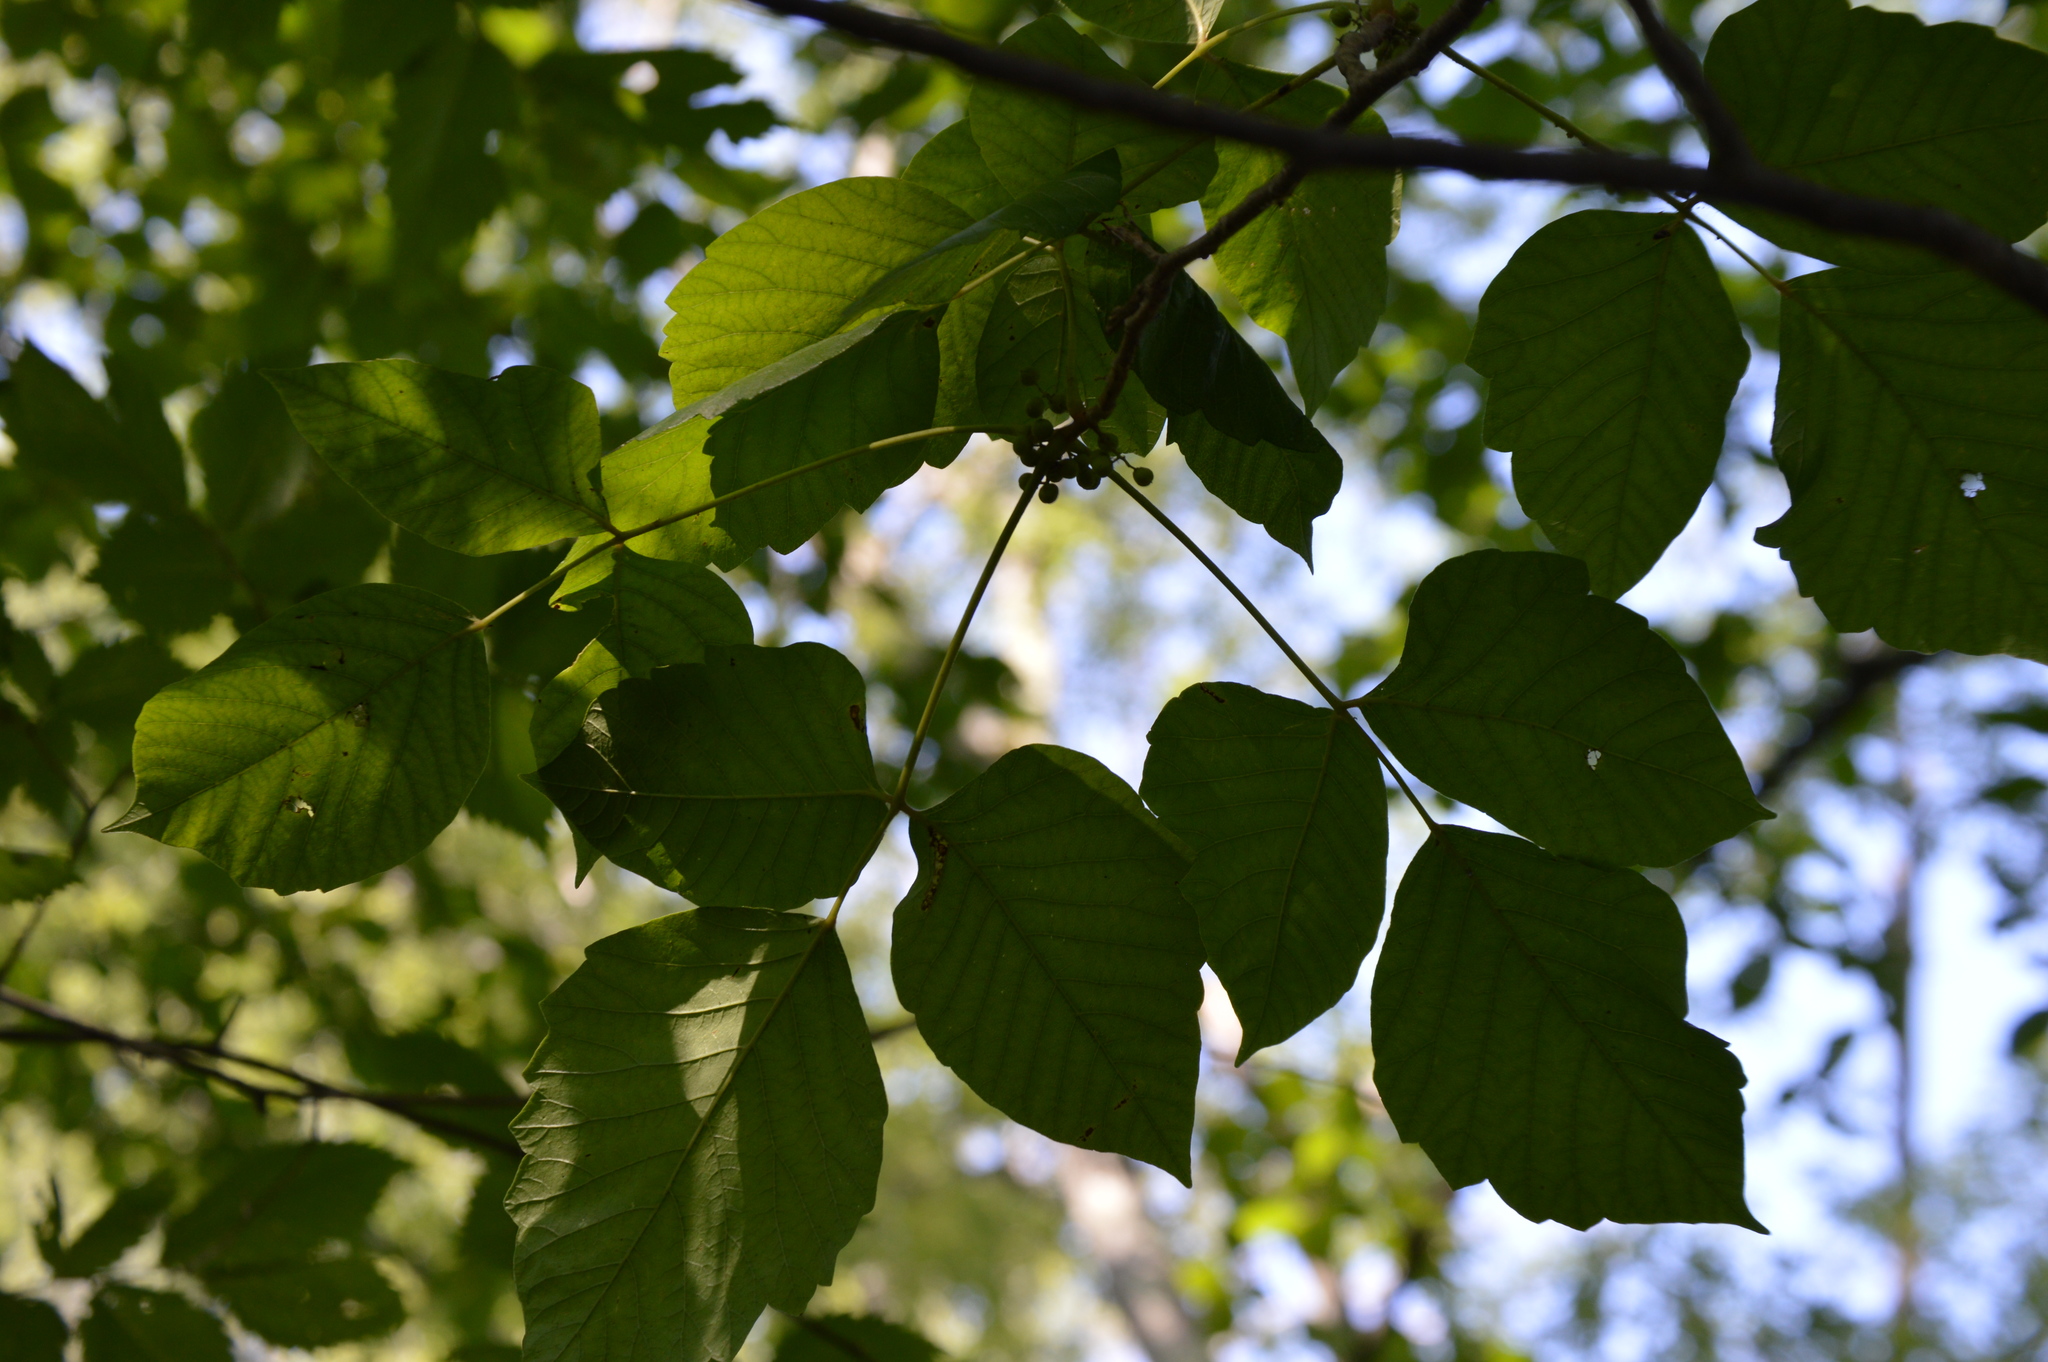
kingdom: Plantae
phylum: Tracheophyta
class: Magnoliopsida
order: Sapindales
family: Anacardiaceae
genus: Toxicodendron
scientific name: Toxicodendron radicans
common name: Poison ivy
